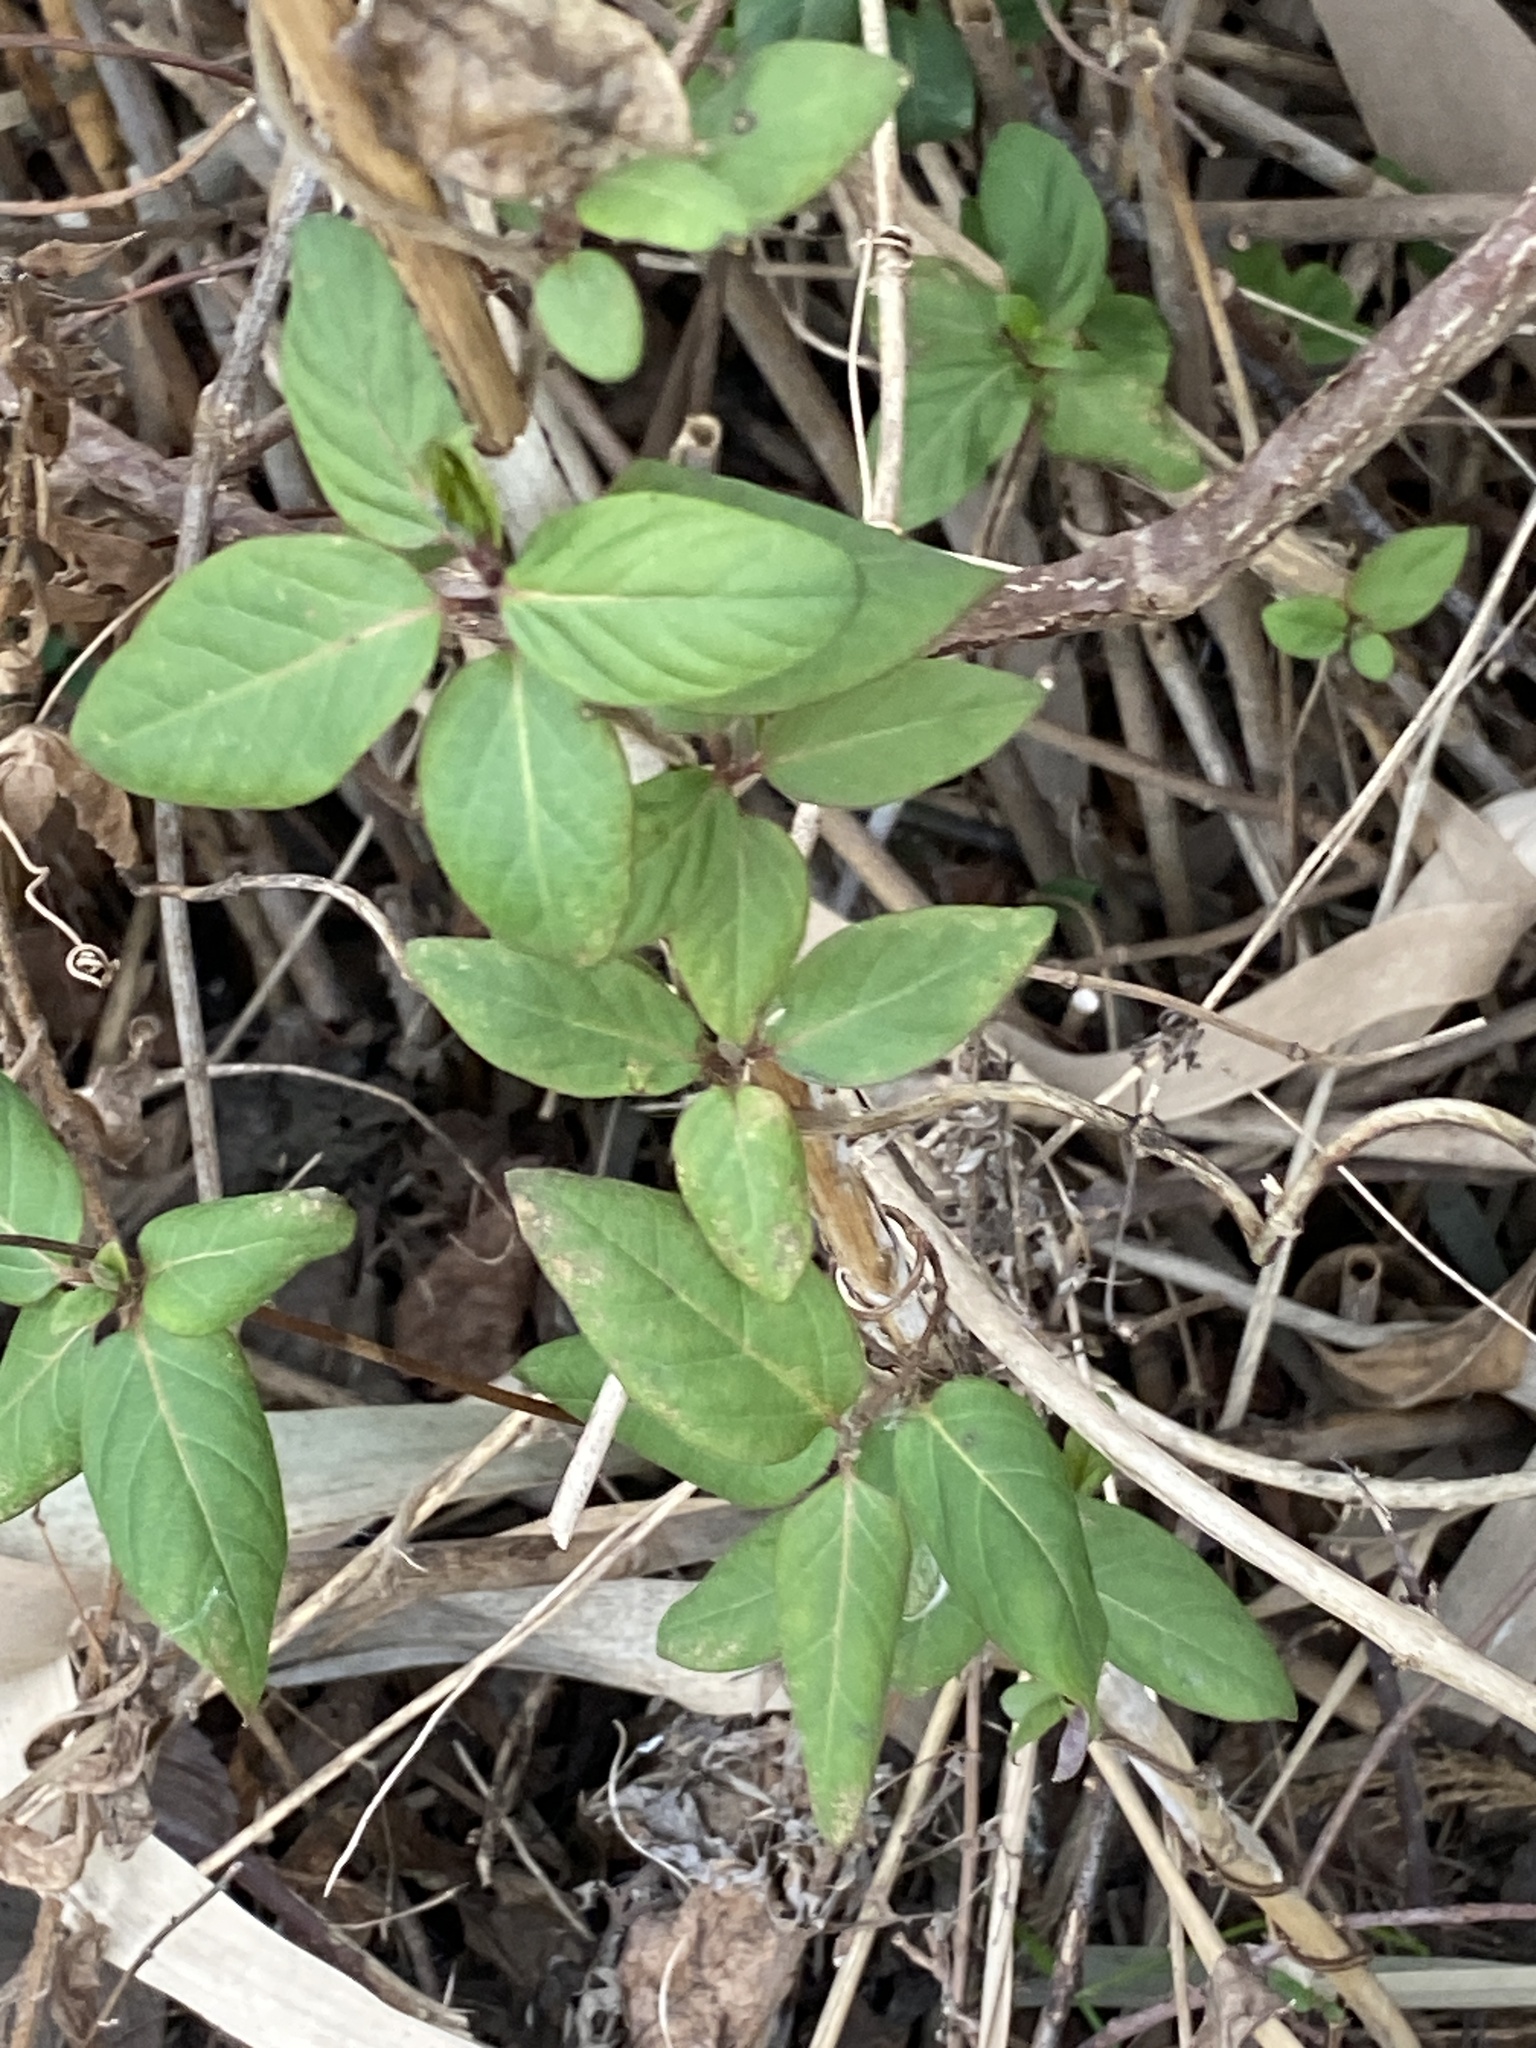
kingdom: Plantae
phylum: Tracheophyta
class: Magnoliopsida
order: Dipsacales
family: Caprifoliaceae
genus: Lonicera
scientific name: Lonicera japonica
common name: Japanese honeysuckle
